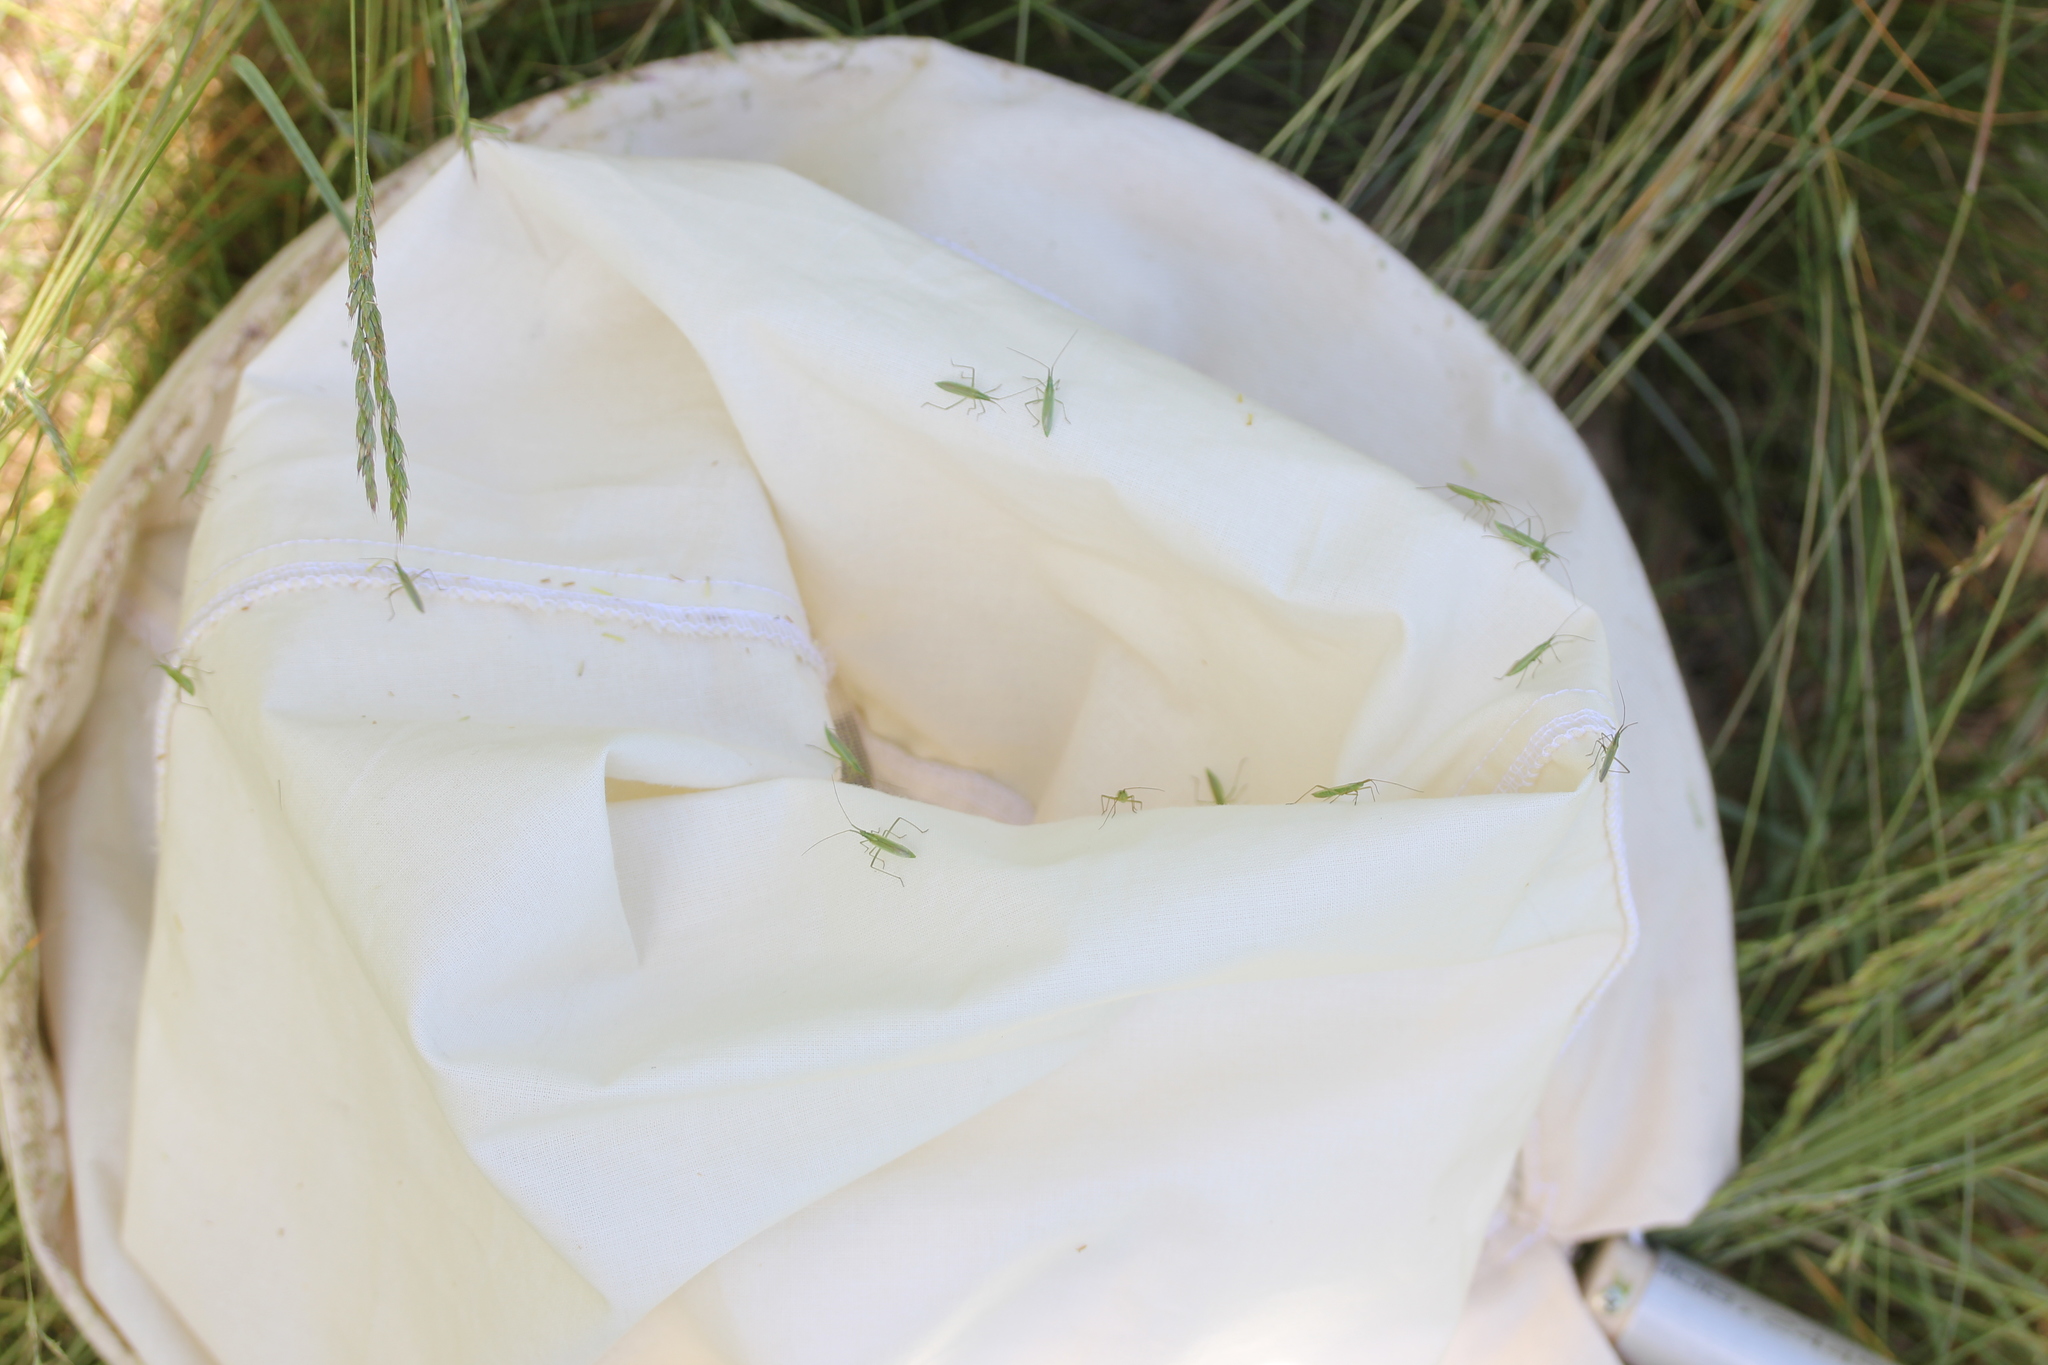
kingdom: Animalia
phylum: Arthropoda
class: Insecta
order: Hemiptera
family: Miridae
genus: Megaloceroea
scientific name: Megaloceroea recticornis
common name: Plant bug
